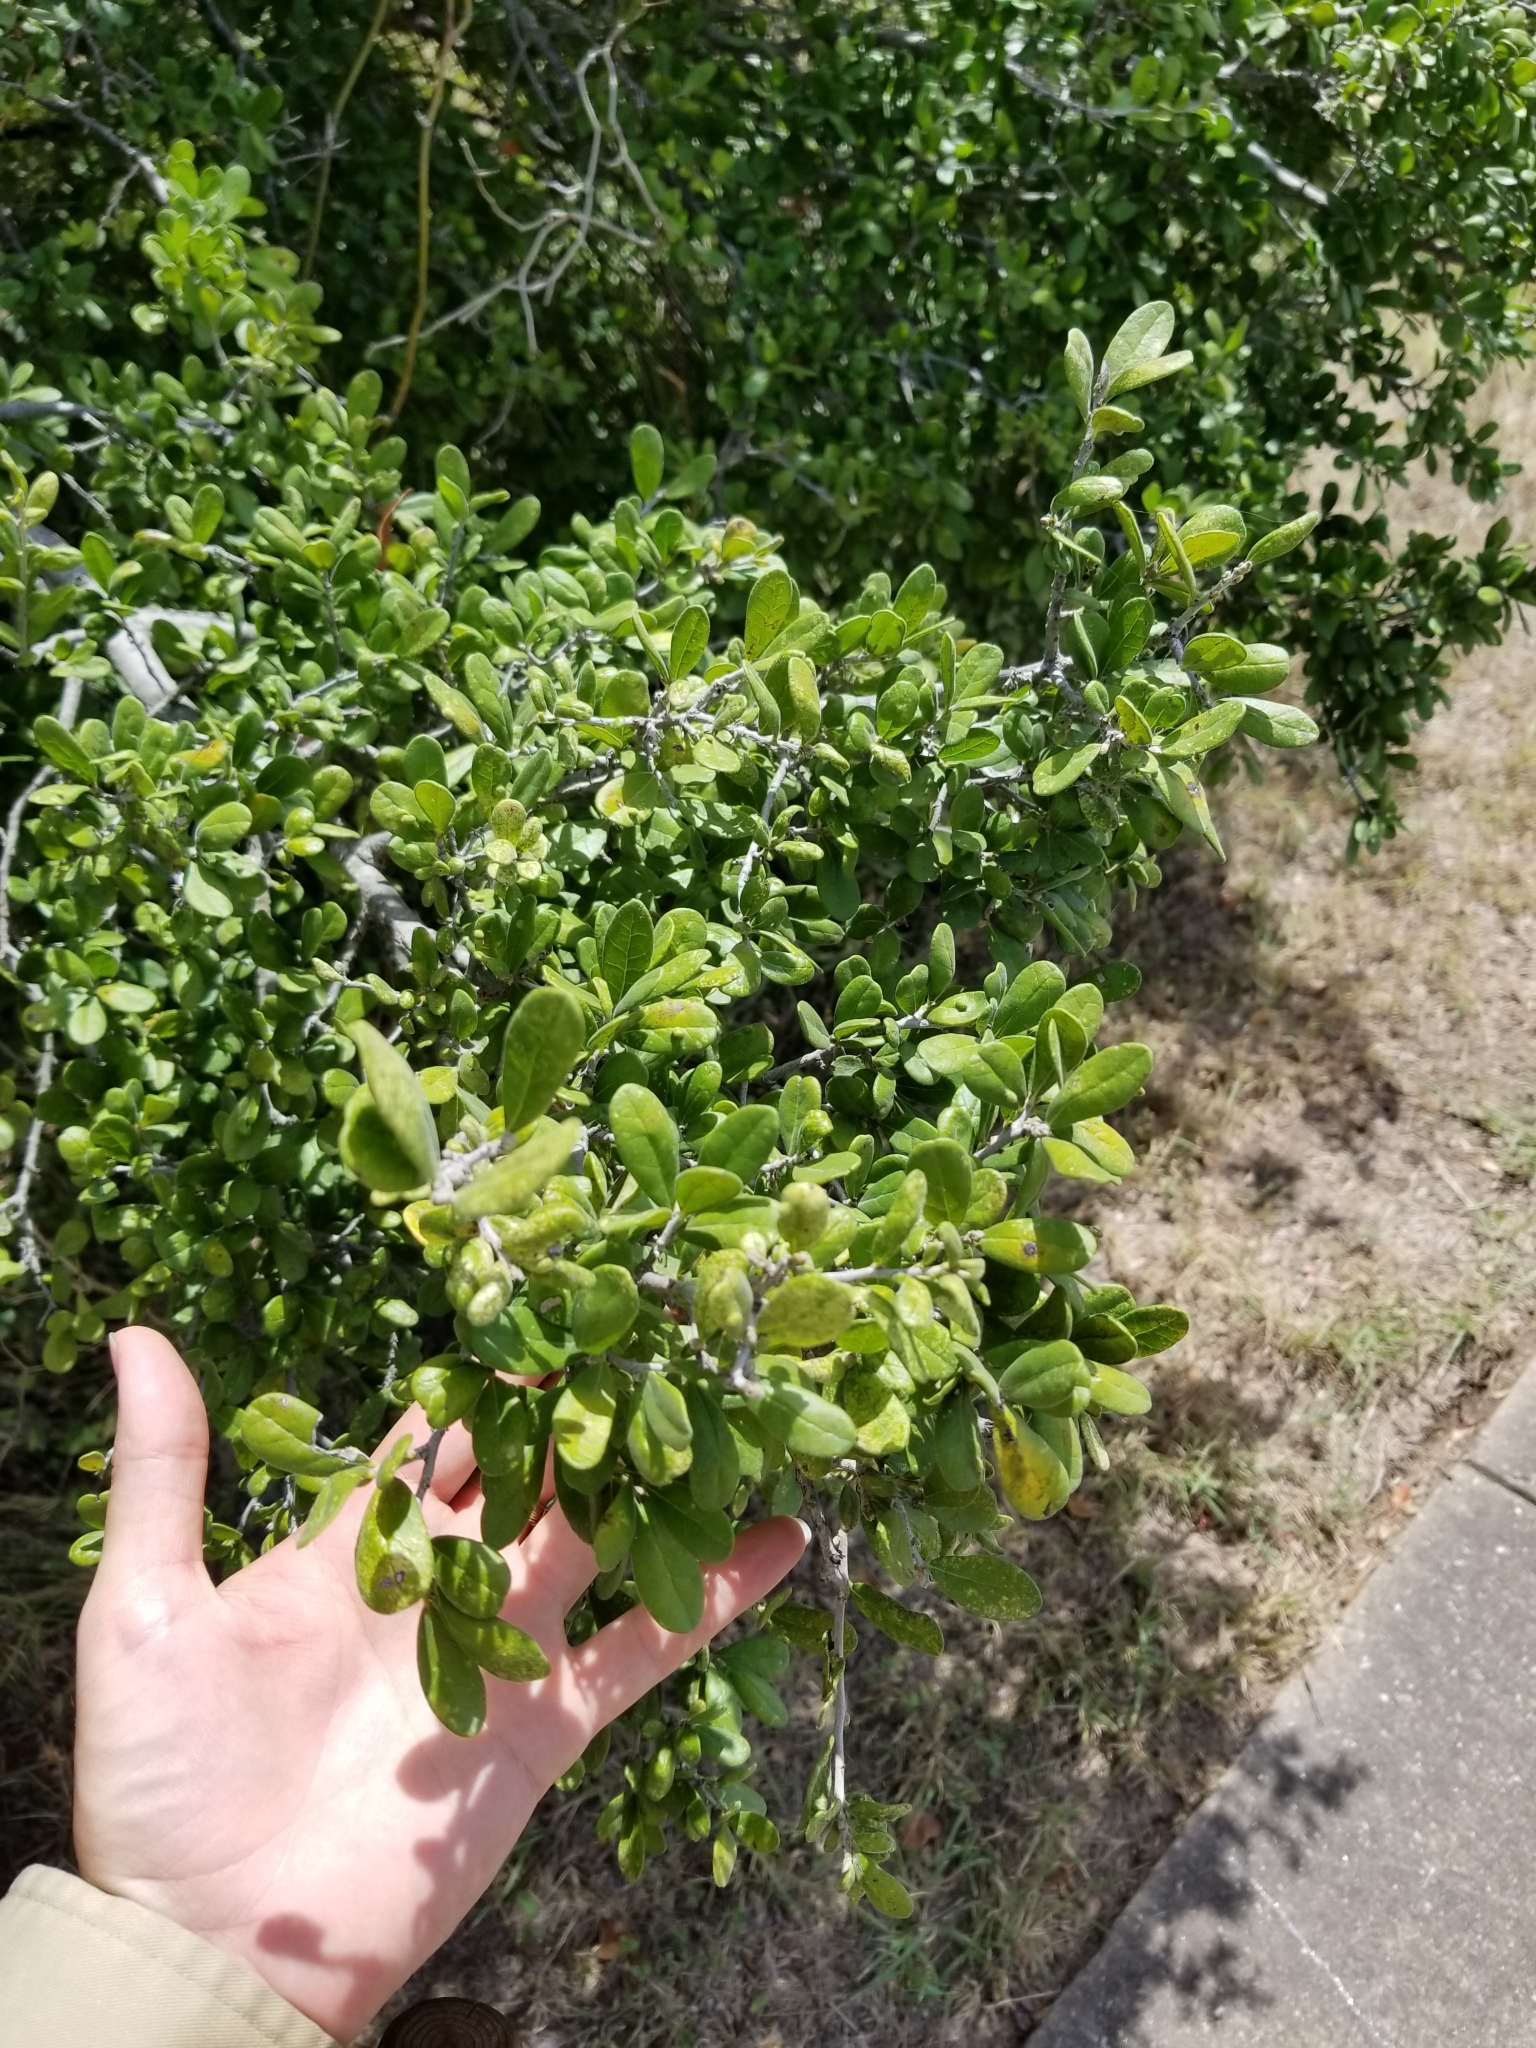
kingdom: Plantae
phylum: Tracheophyta
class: Magnoliopsida
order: Ericales
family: Ebenaceae
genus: Diospyros
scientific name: Diospyros texana
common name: Texas persimmon
